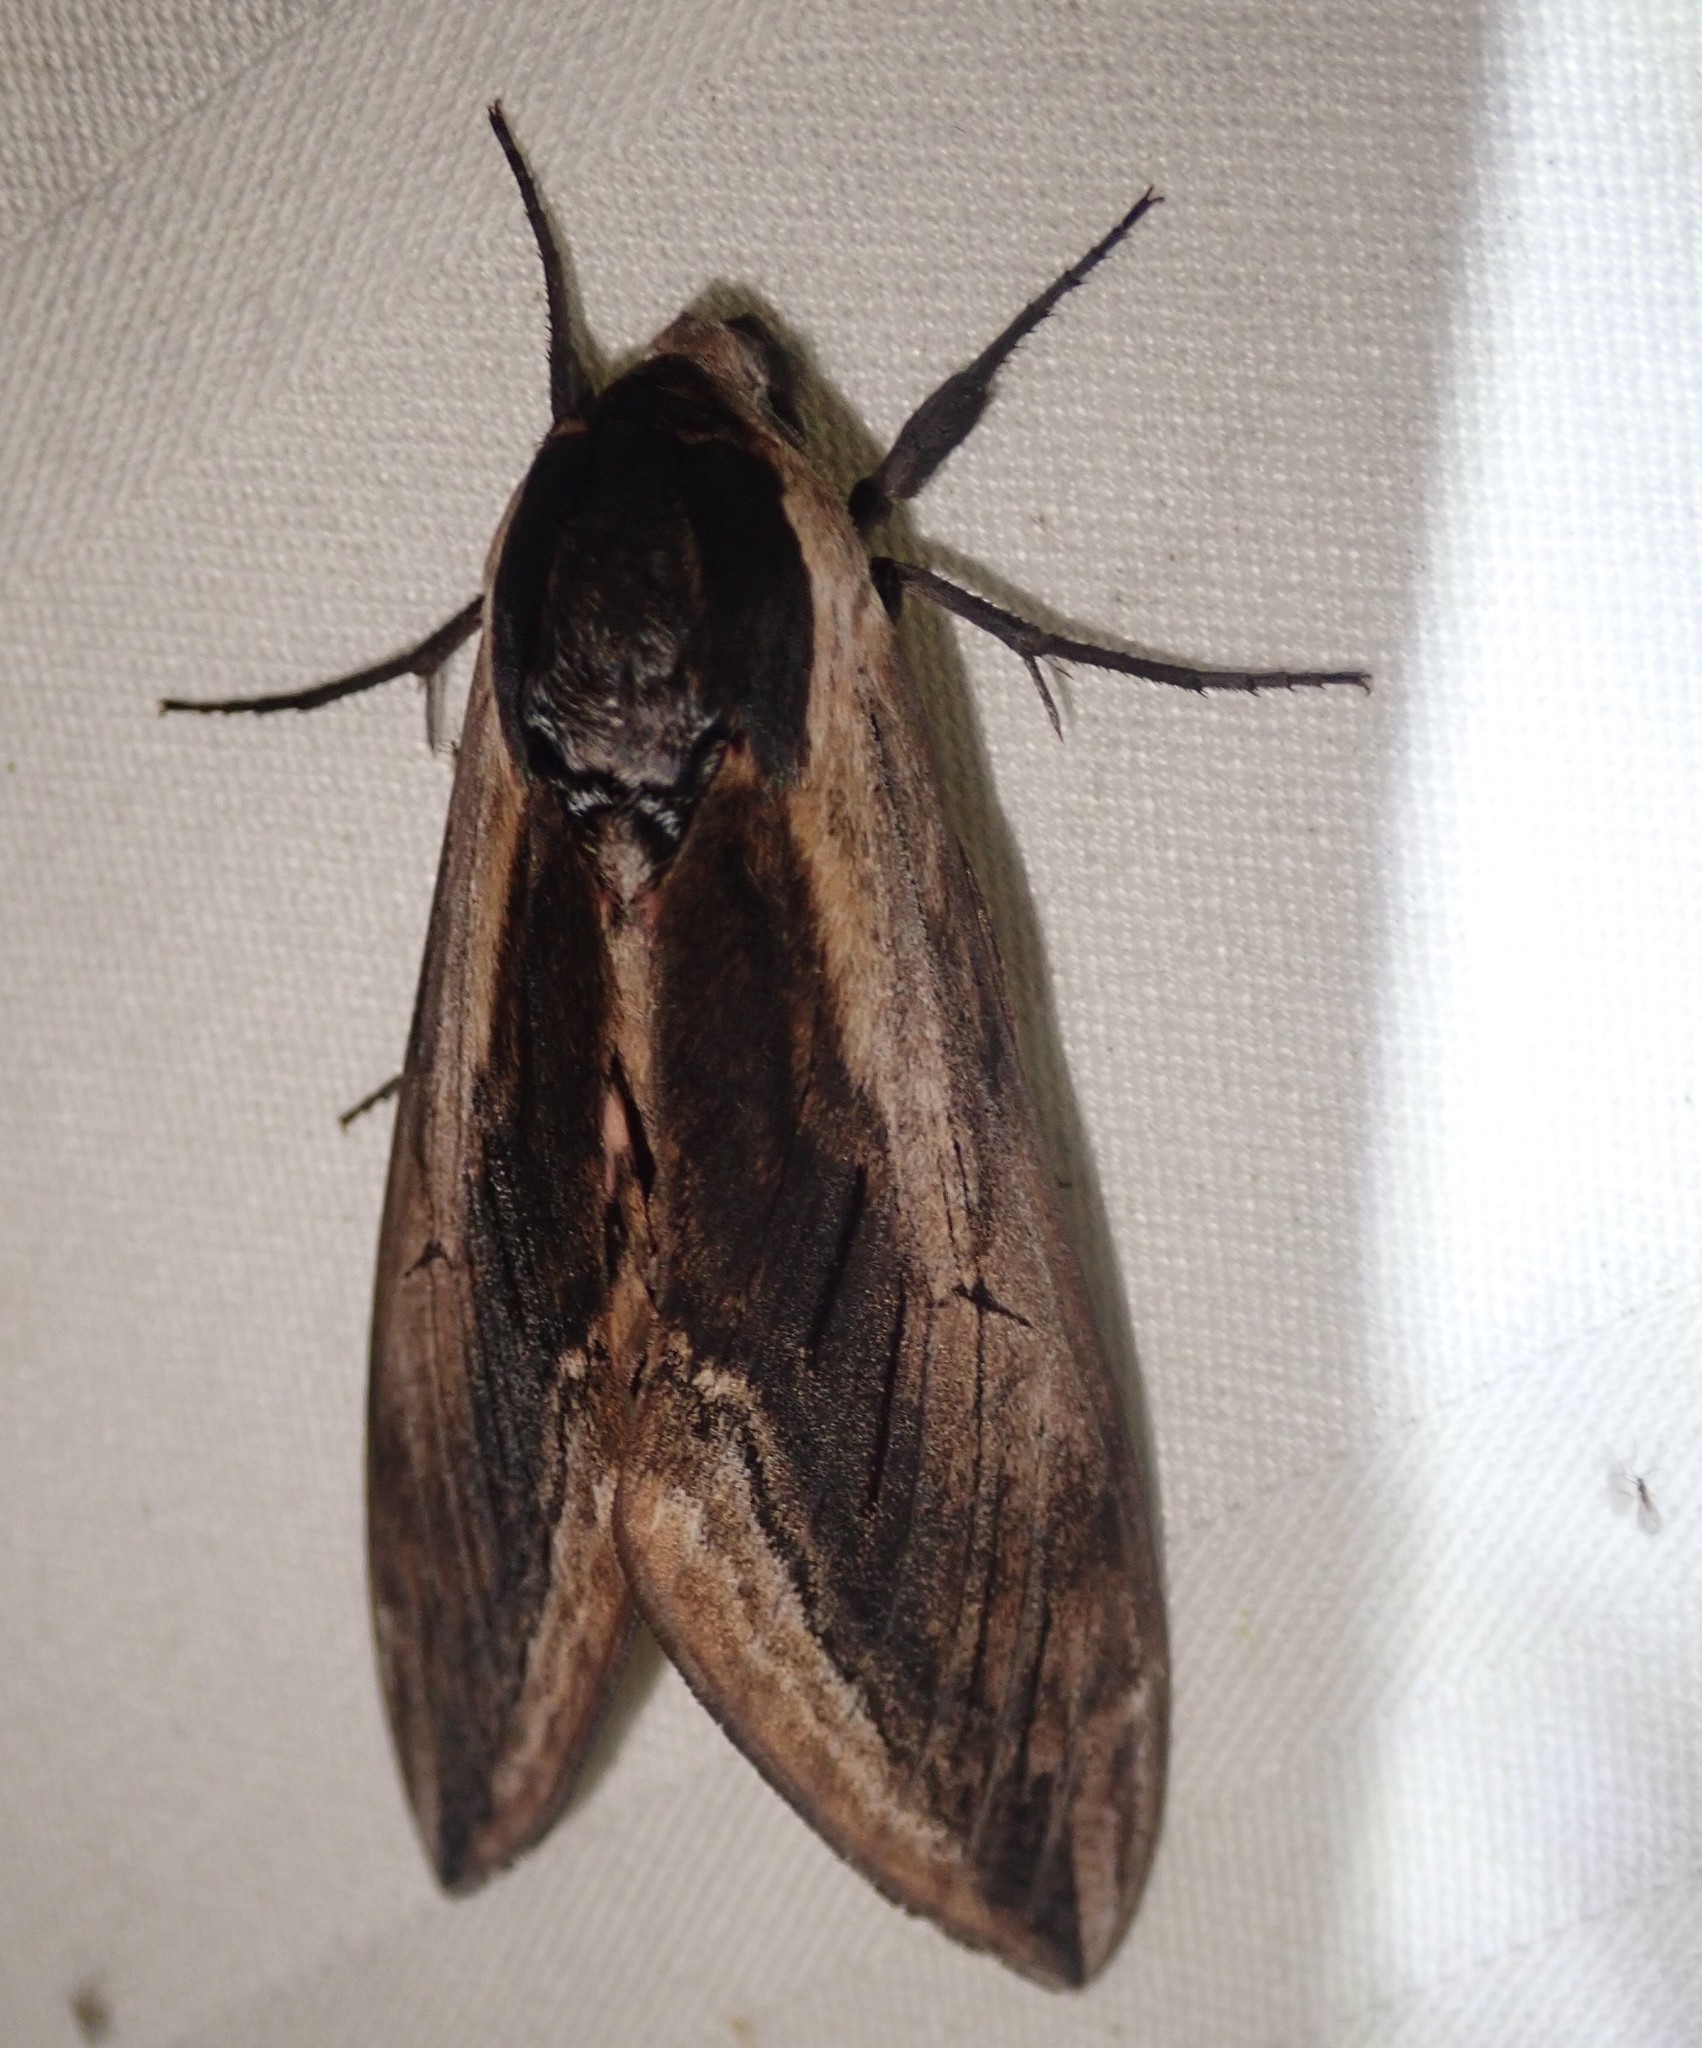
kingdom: Animalia
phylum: Arthropoda
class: Insecta
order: Lepidoptera
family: Sphingidae
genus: Sphinx
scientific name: Sphinx ligustri
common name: Privet hawk-moth
